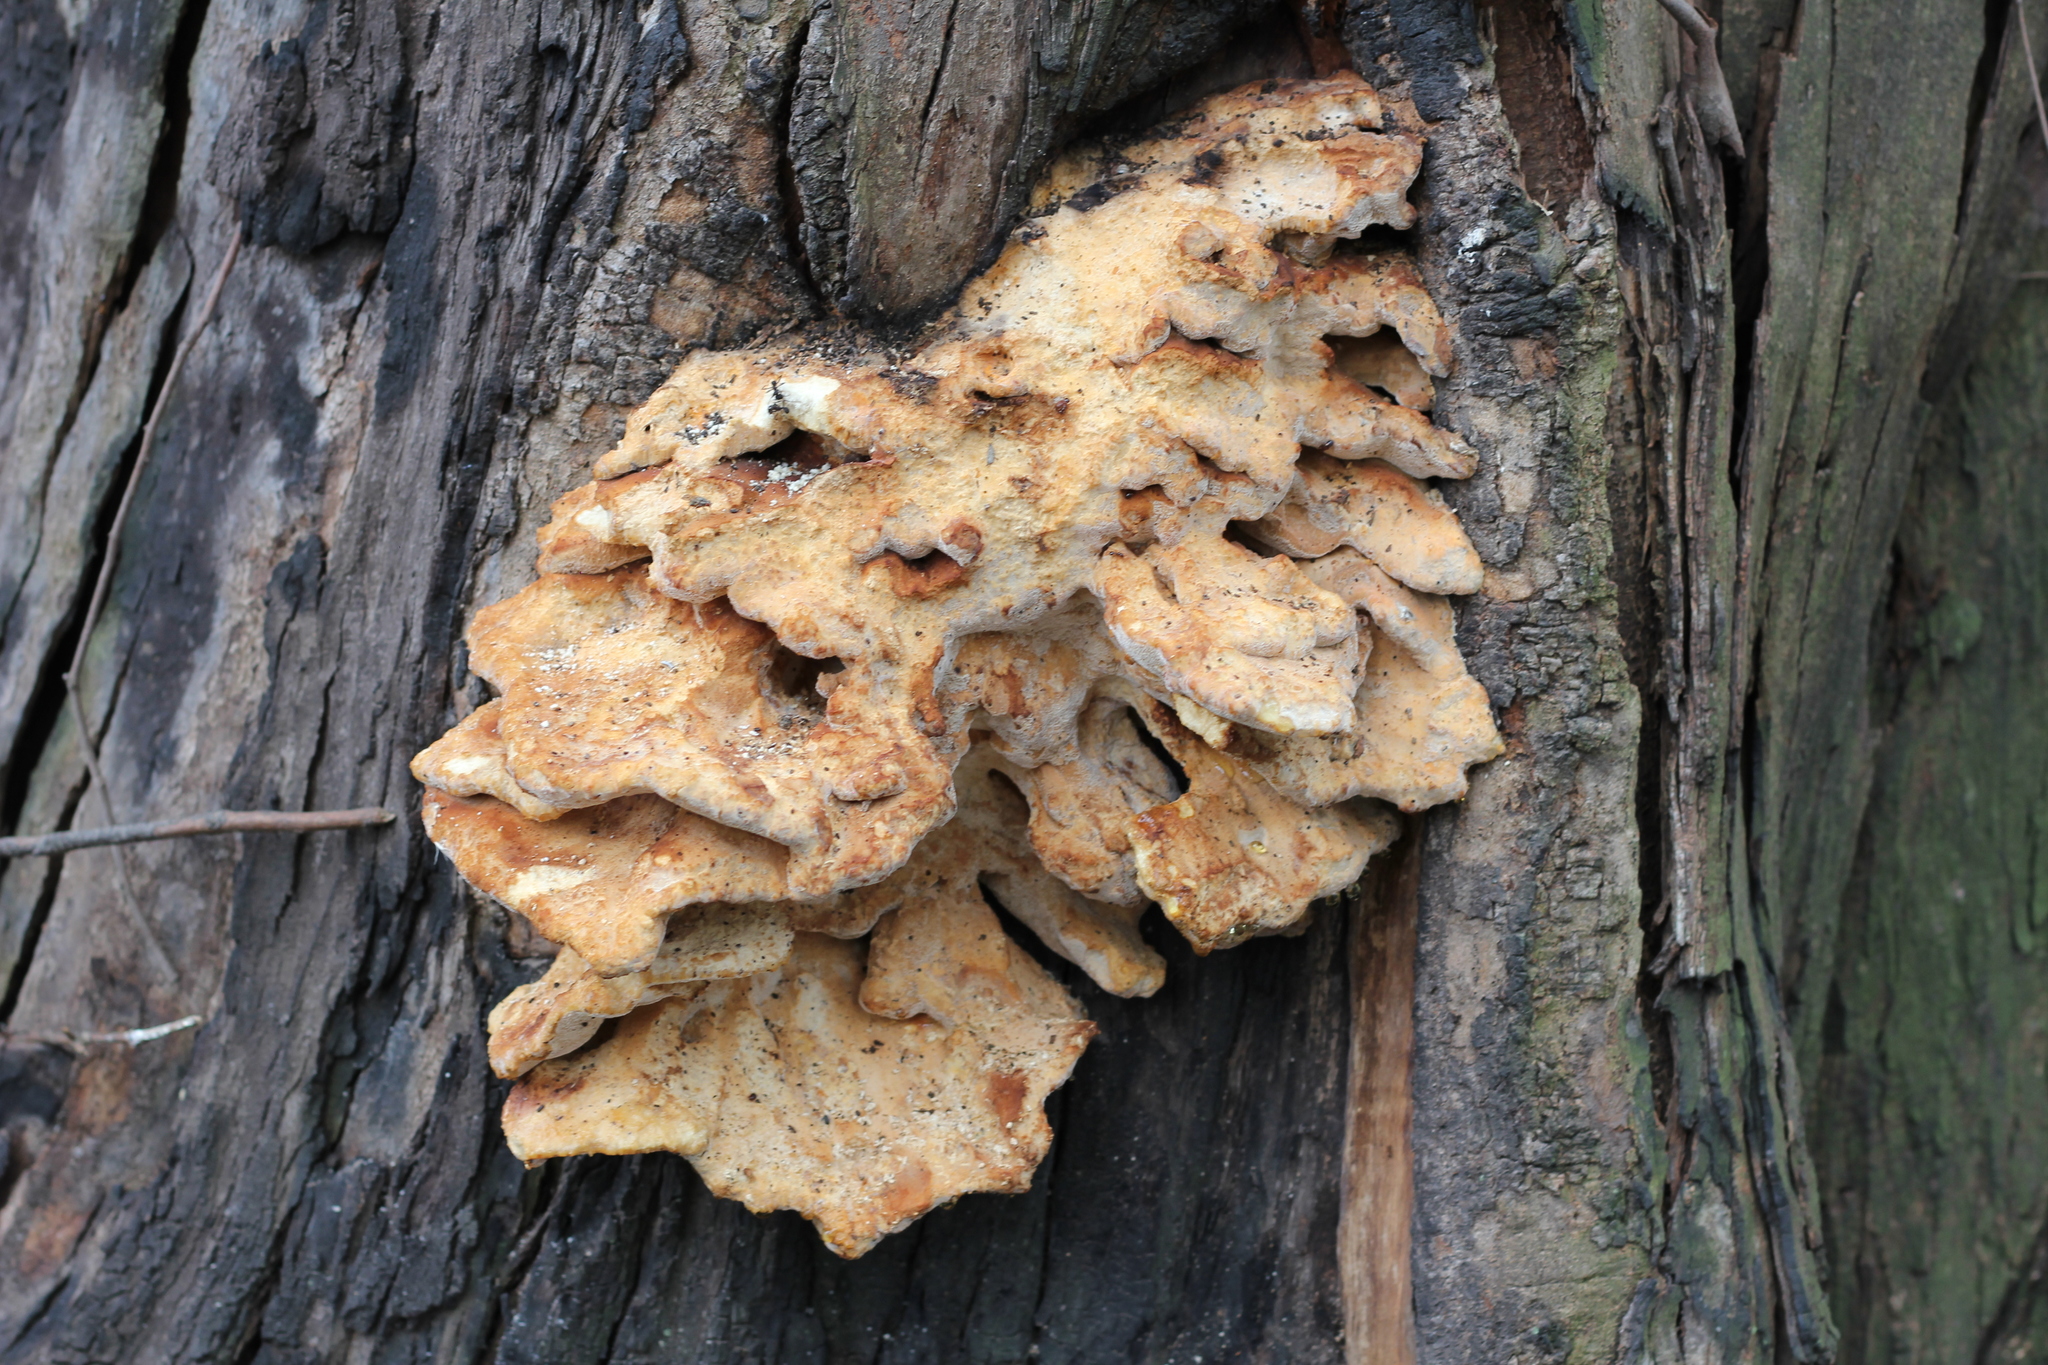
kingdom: Fungi
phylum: Basidiomycota
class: Agaricomycetes
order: Polyporales
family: Laetiporaceae
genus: Laetiporus
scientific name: Laetiporus sulphureus
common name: Chicken of the woods
